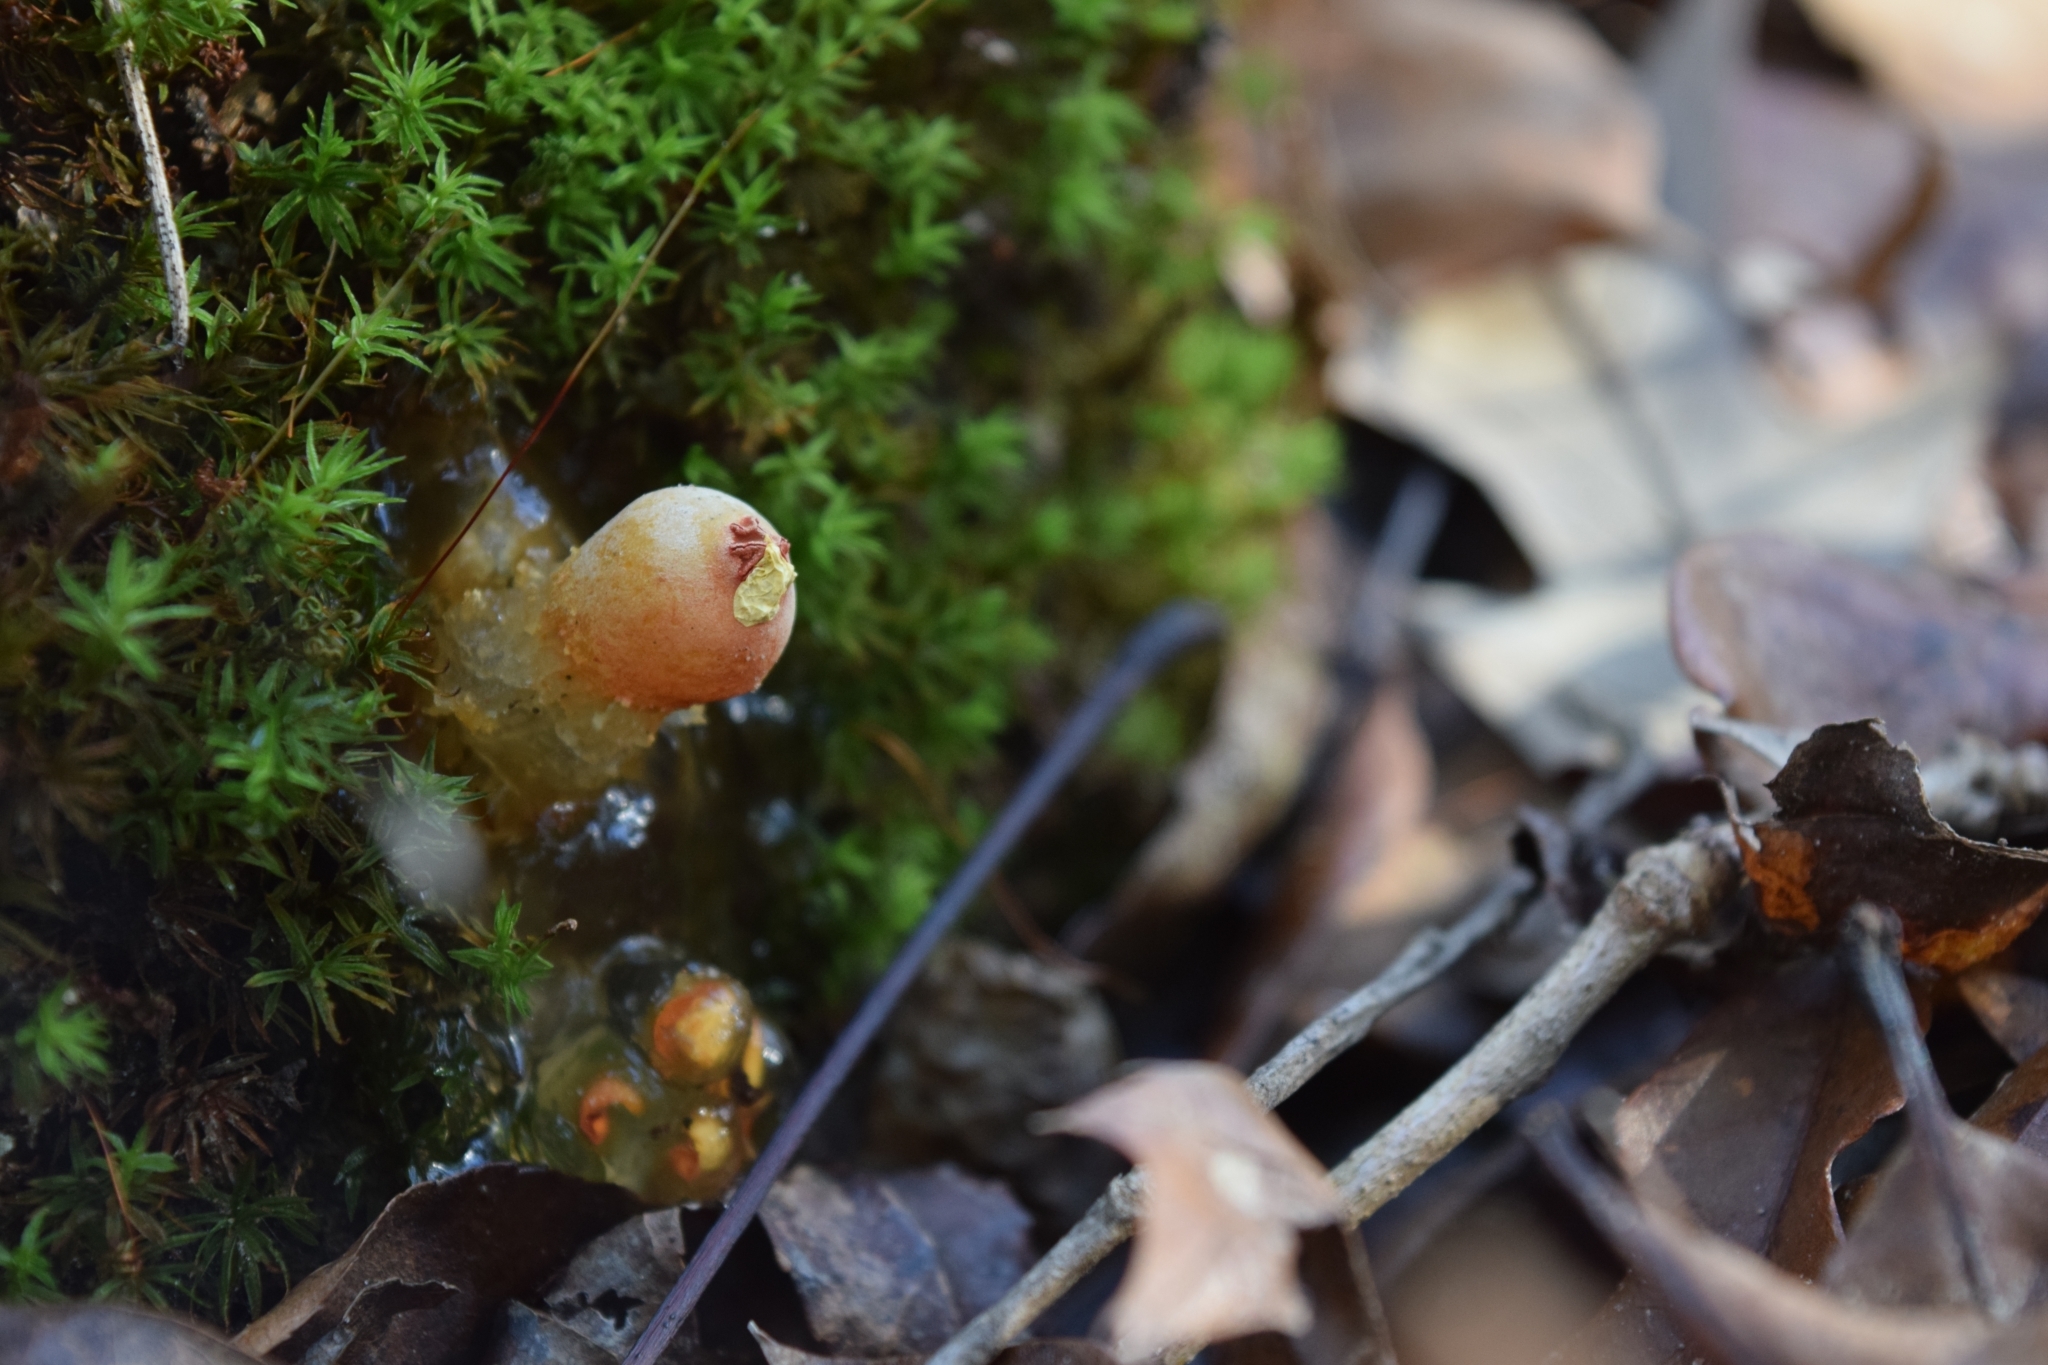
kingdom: Fungi
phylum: Basidiomycota
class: Agaricomycetes
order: Boletales
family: Calostomataceae
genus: Calostoma
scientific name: Calostoma cinnabarinum
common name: Stalked puffball-in-aspic
